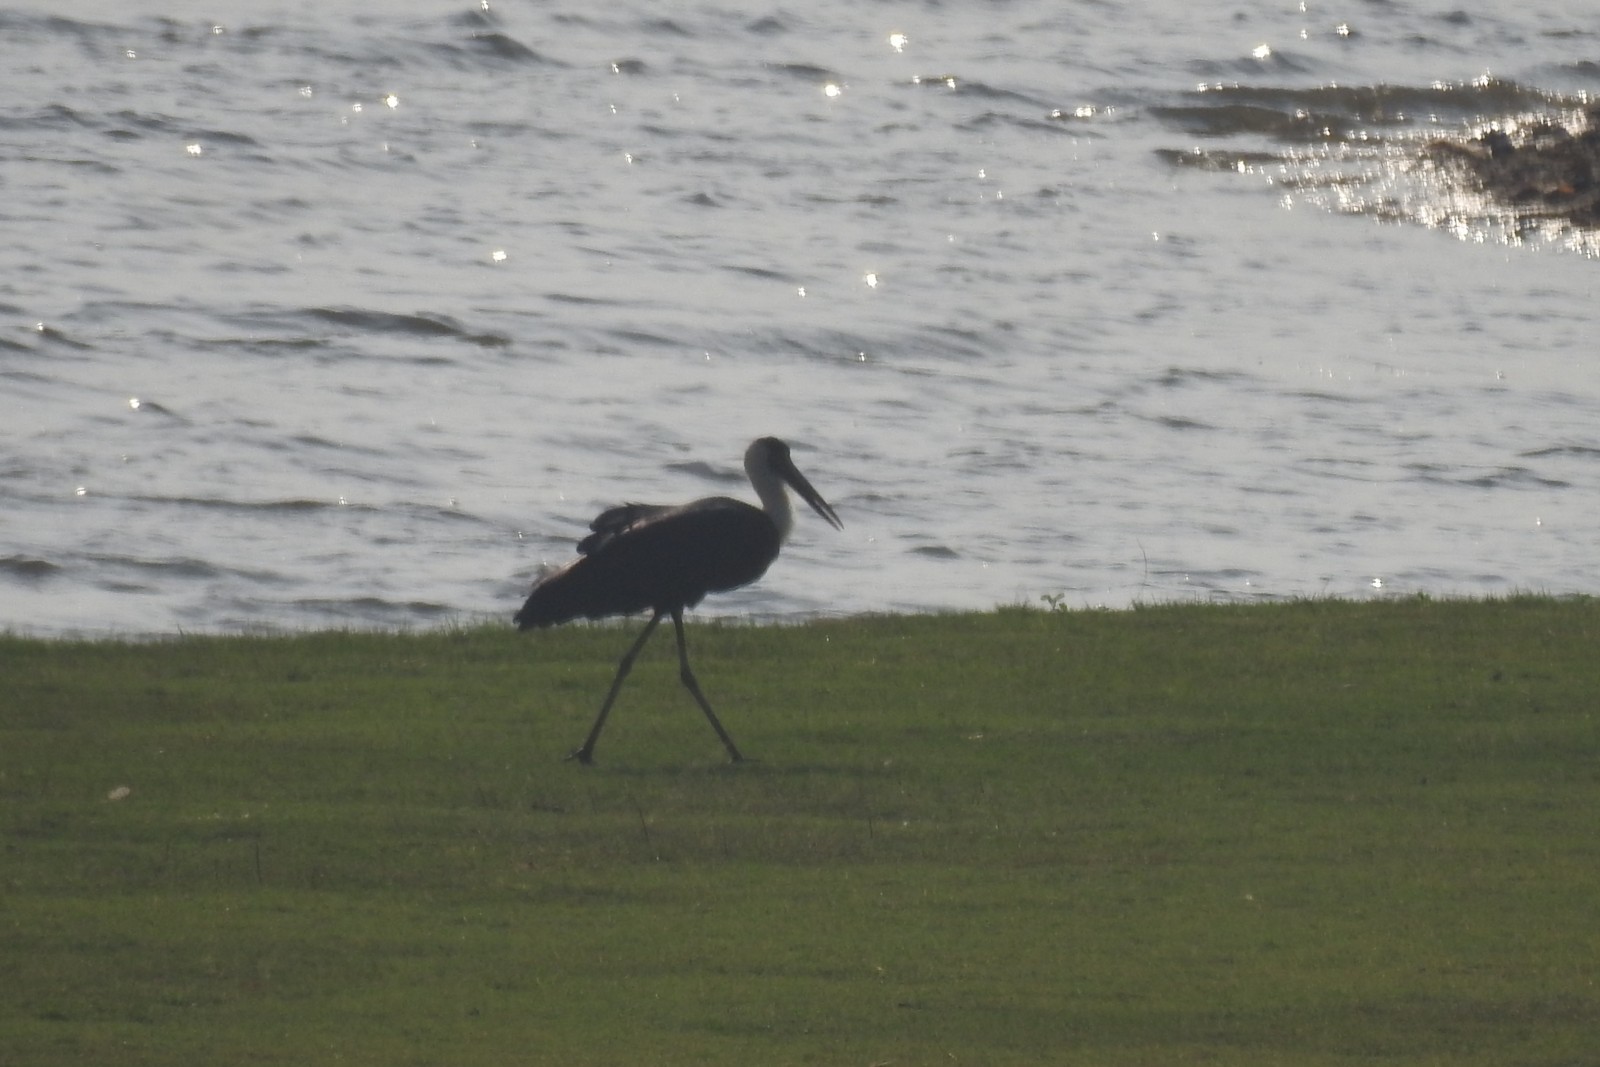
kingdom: Animalia
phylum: Chordata
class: Aves
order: Ciconiiformes
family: Ciconiidae
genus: Ciconia
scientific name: Ciconia episcopus
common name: Woolly-necked stork
